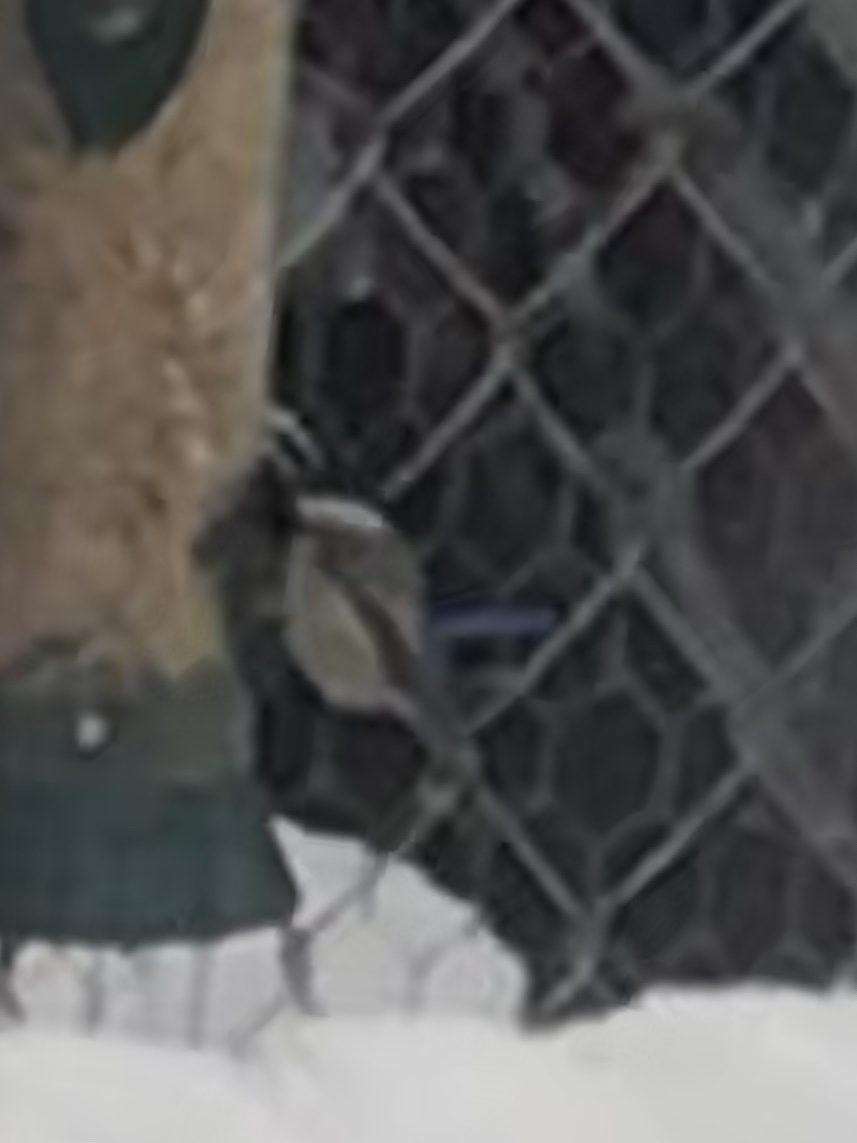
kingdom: Animalia
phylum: Chordata
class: Aves
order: Passeriformes
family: Paridae
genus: Poecile
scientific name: Poecile carolinensis
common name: Carolina chickadee
